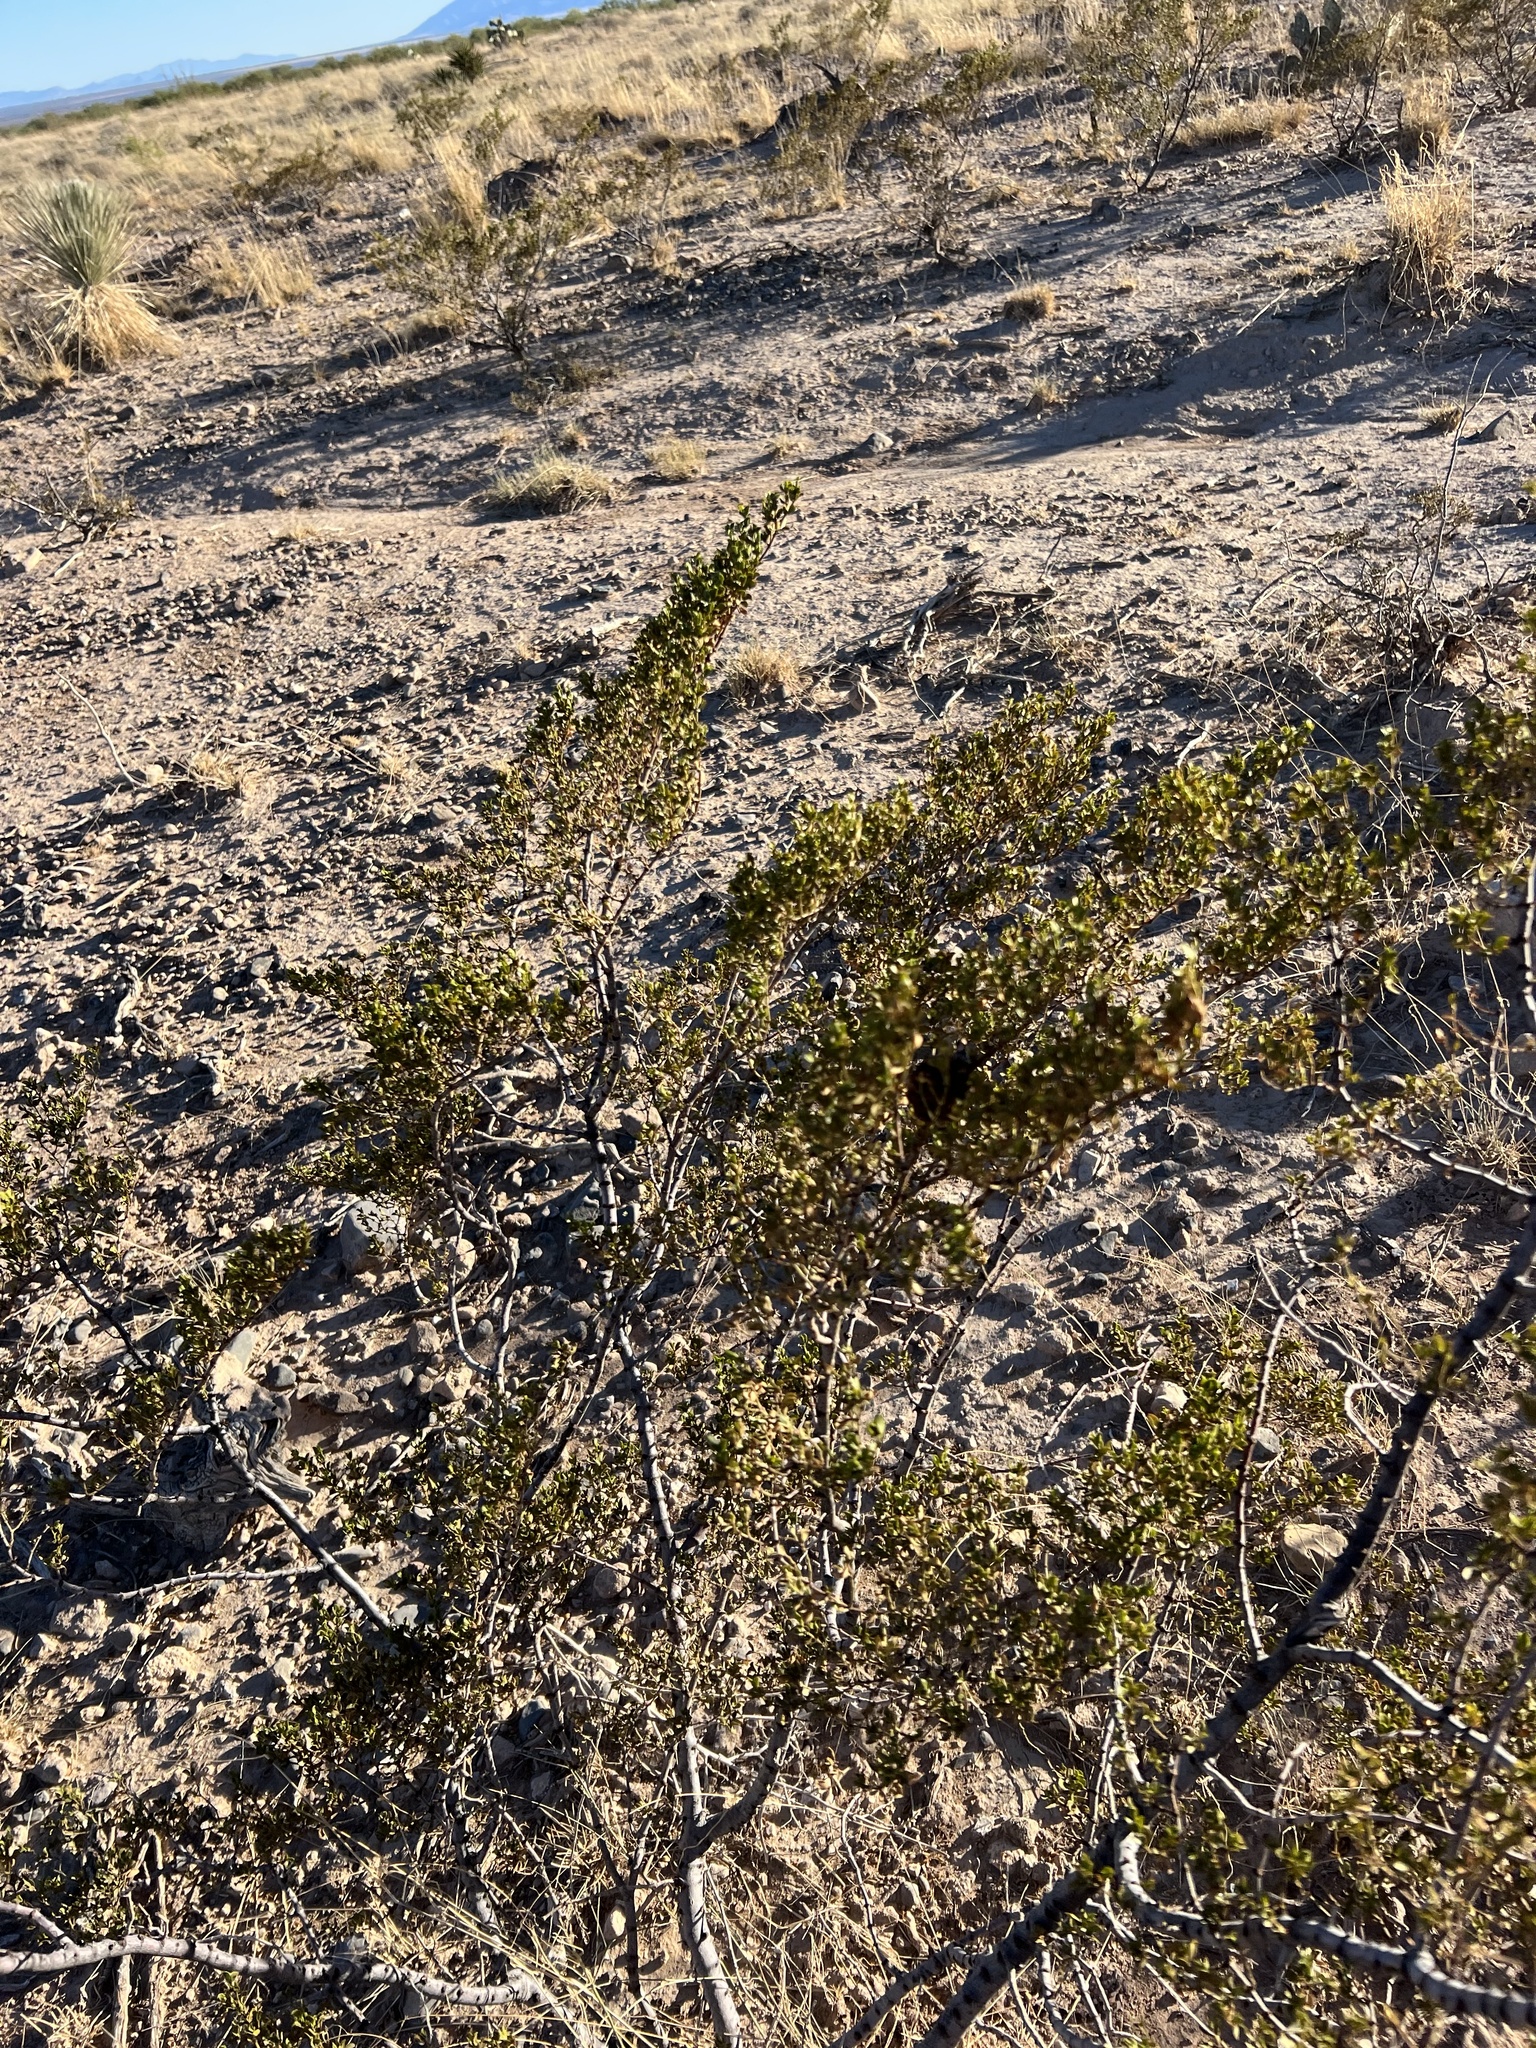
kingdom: Plantae
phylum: Tracheophyta
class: Magnoliopsida
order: Zygophyllales
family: Zygophyllaceae
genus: Larrea
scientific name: Larrea tridentata
